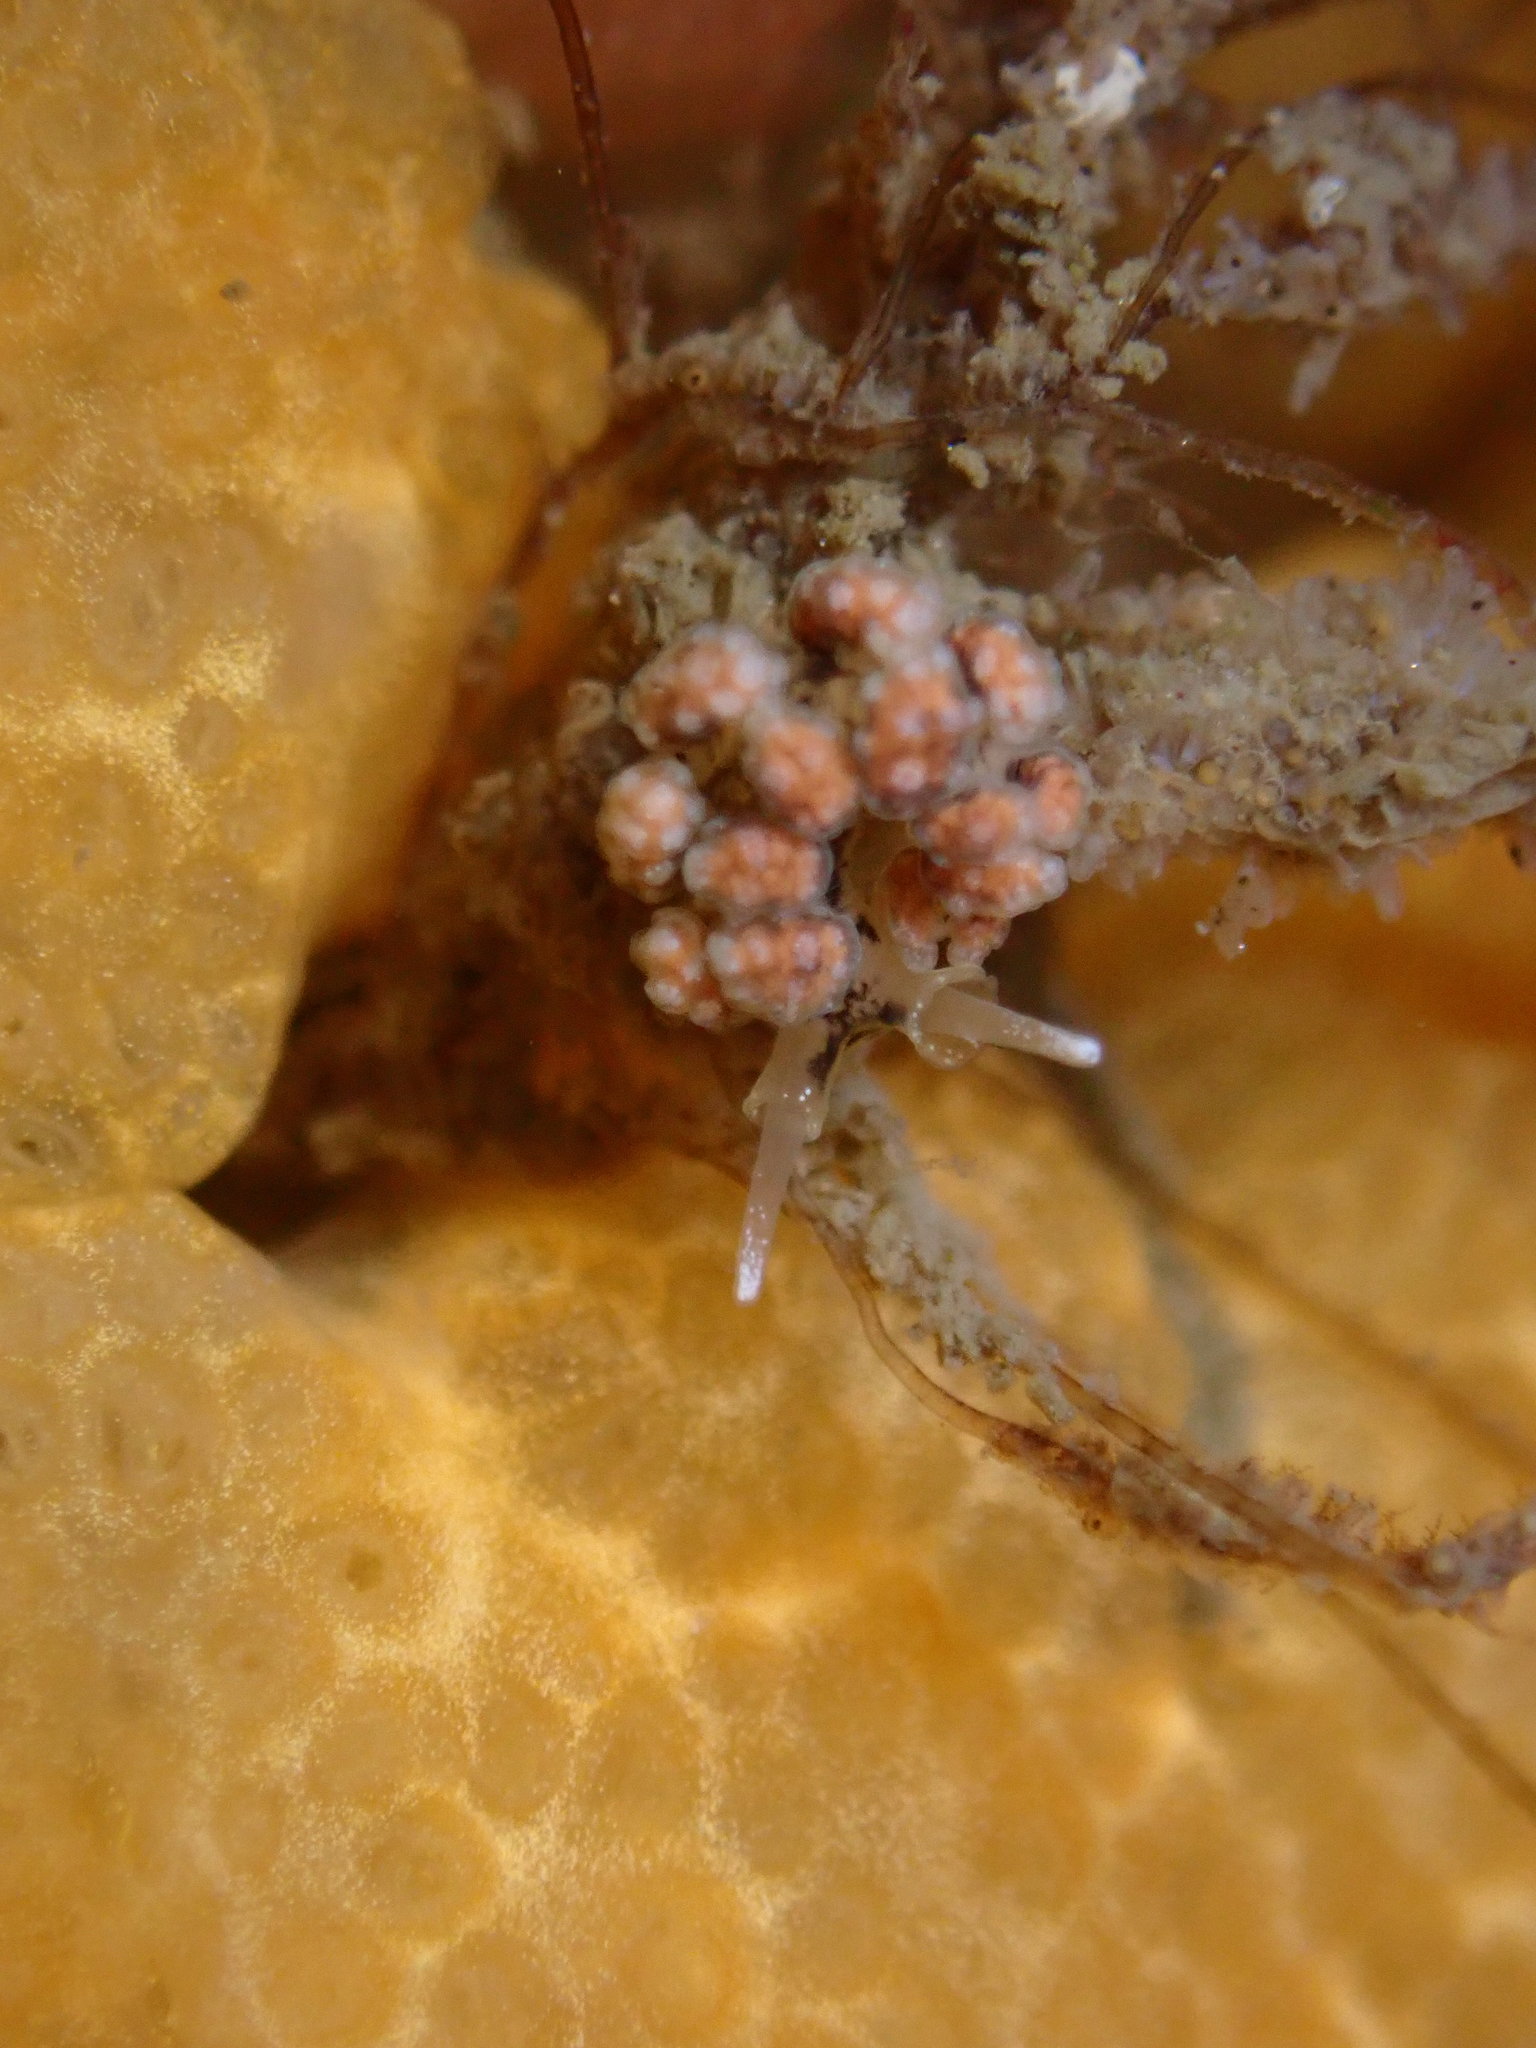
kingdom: Animalia
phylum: Mollusca
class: Gastropoda
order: Nudibranchia
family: Dotidae
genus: Doto
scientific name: Doto kya
